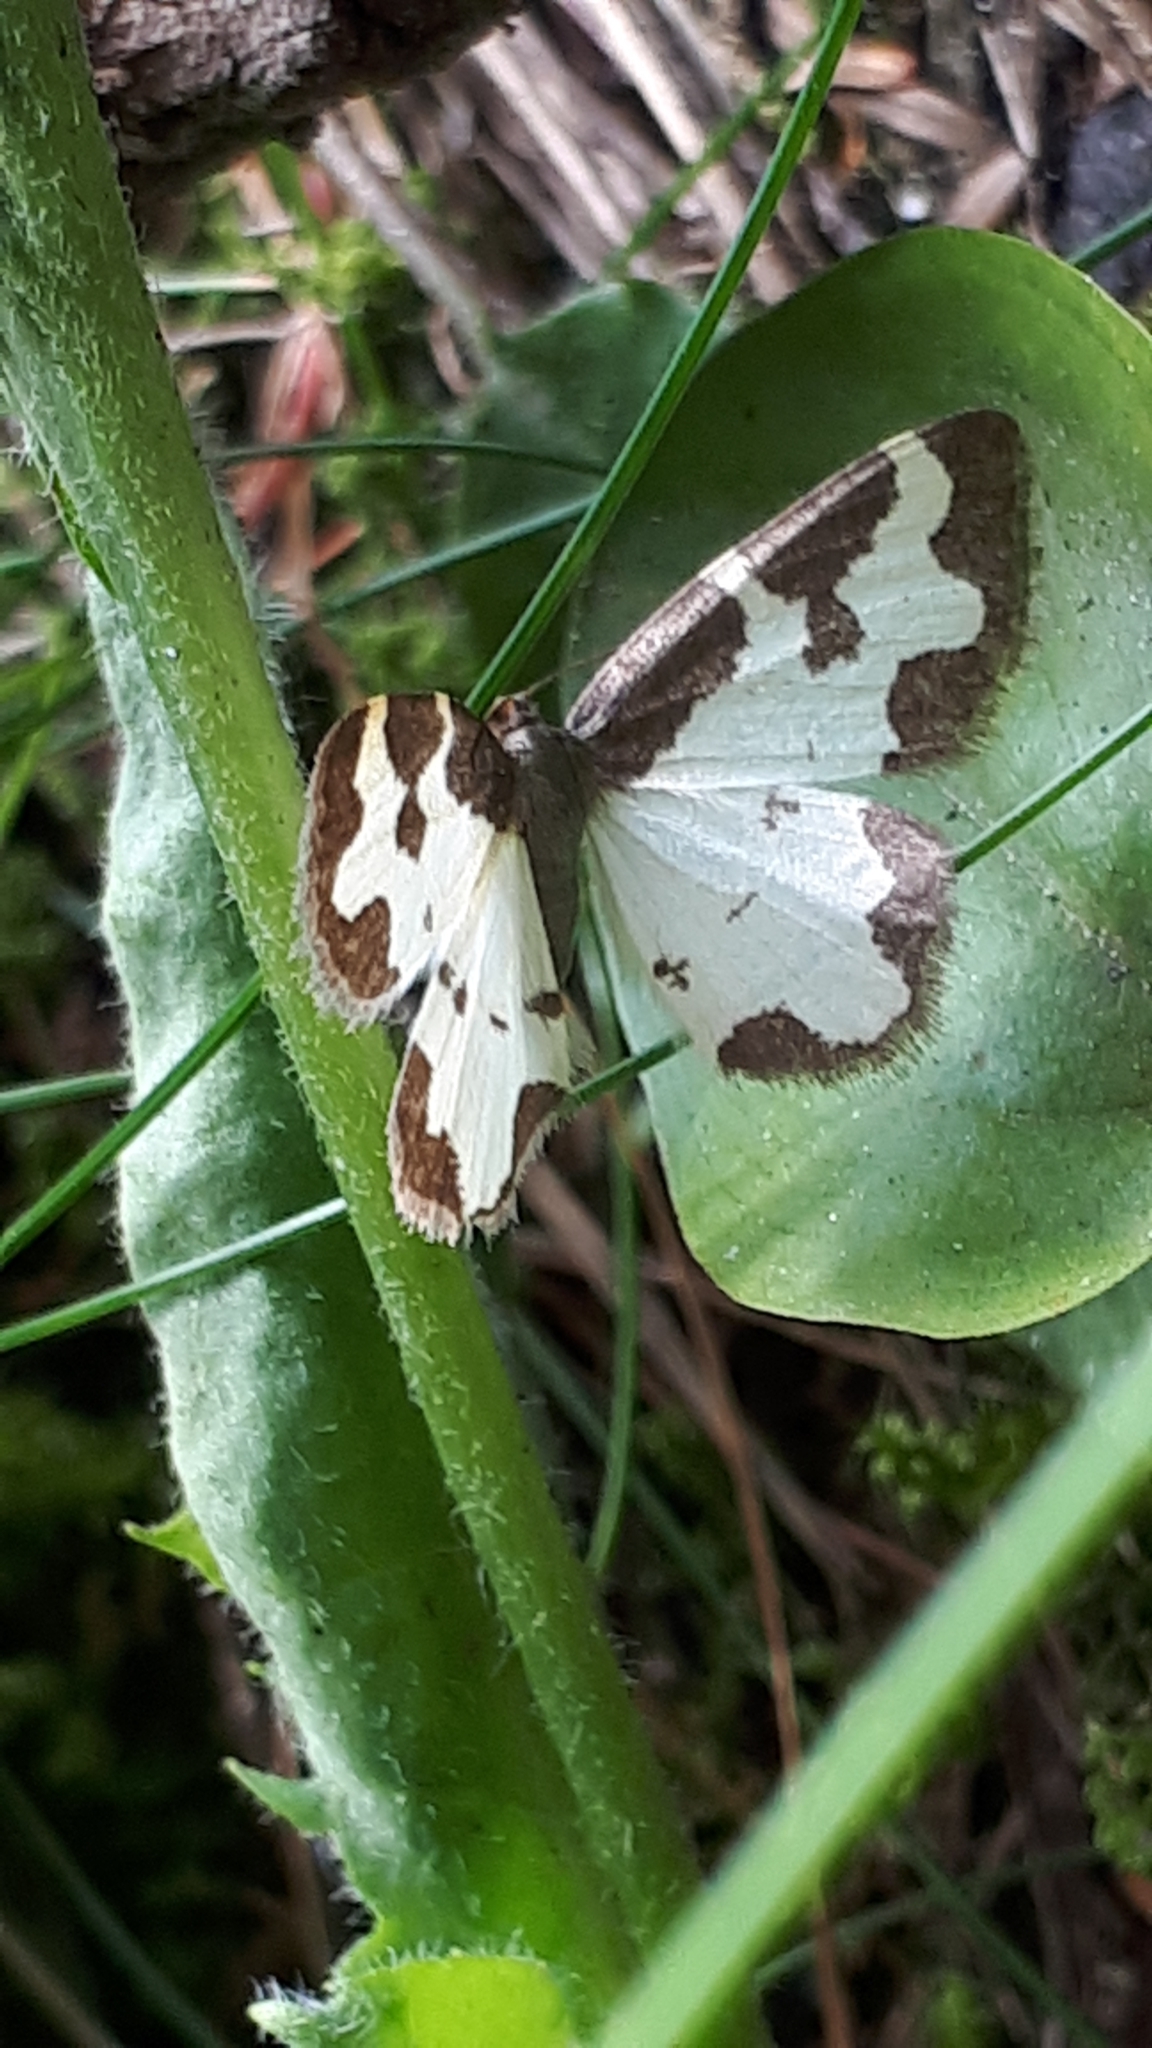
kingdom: Animalia
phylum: Arthropoda
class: Insecta
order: Lepidoptera
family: Geometridae
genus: Lomaspilis
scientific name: Lomaspilis marginata
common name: Clouded border
